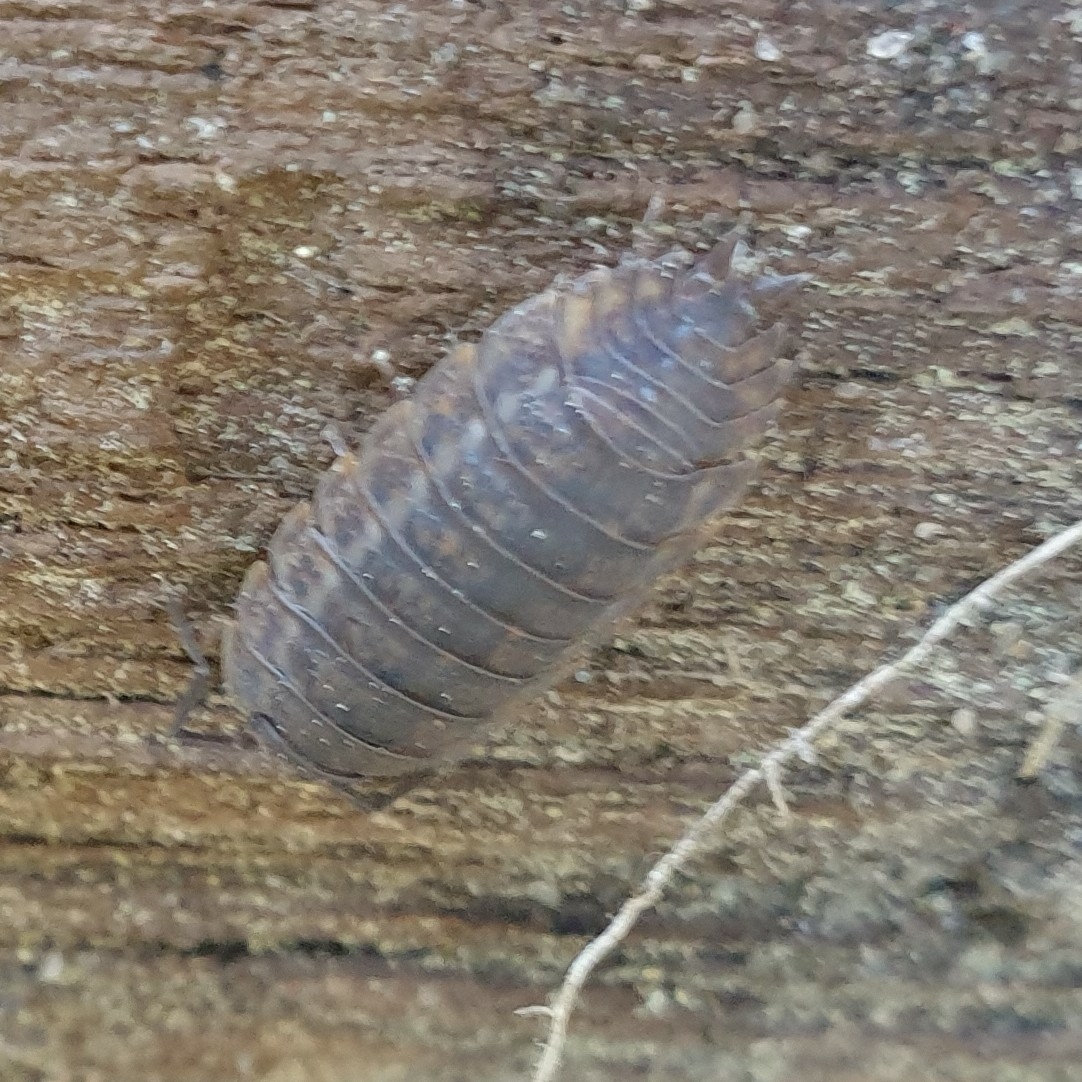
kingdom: Animalia
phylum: Arthropoda
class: Malacostraca
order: Isopoda
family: Trachelipodidae
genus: Trachelipus
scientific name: Trachelipus rathkii
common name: Isopod
